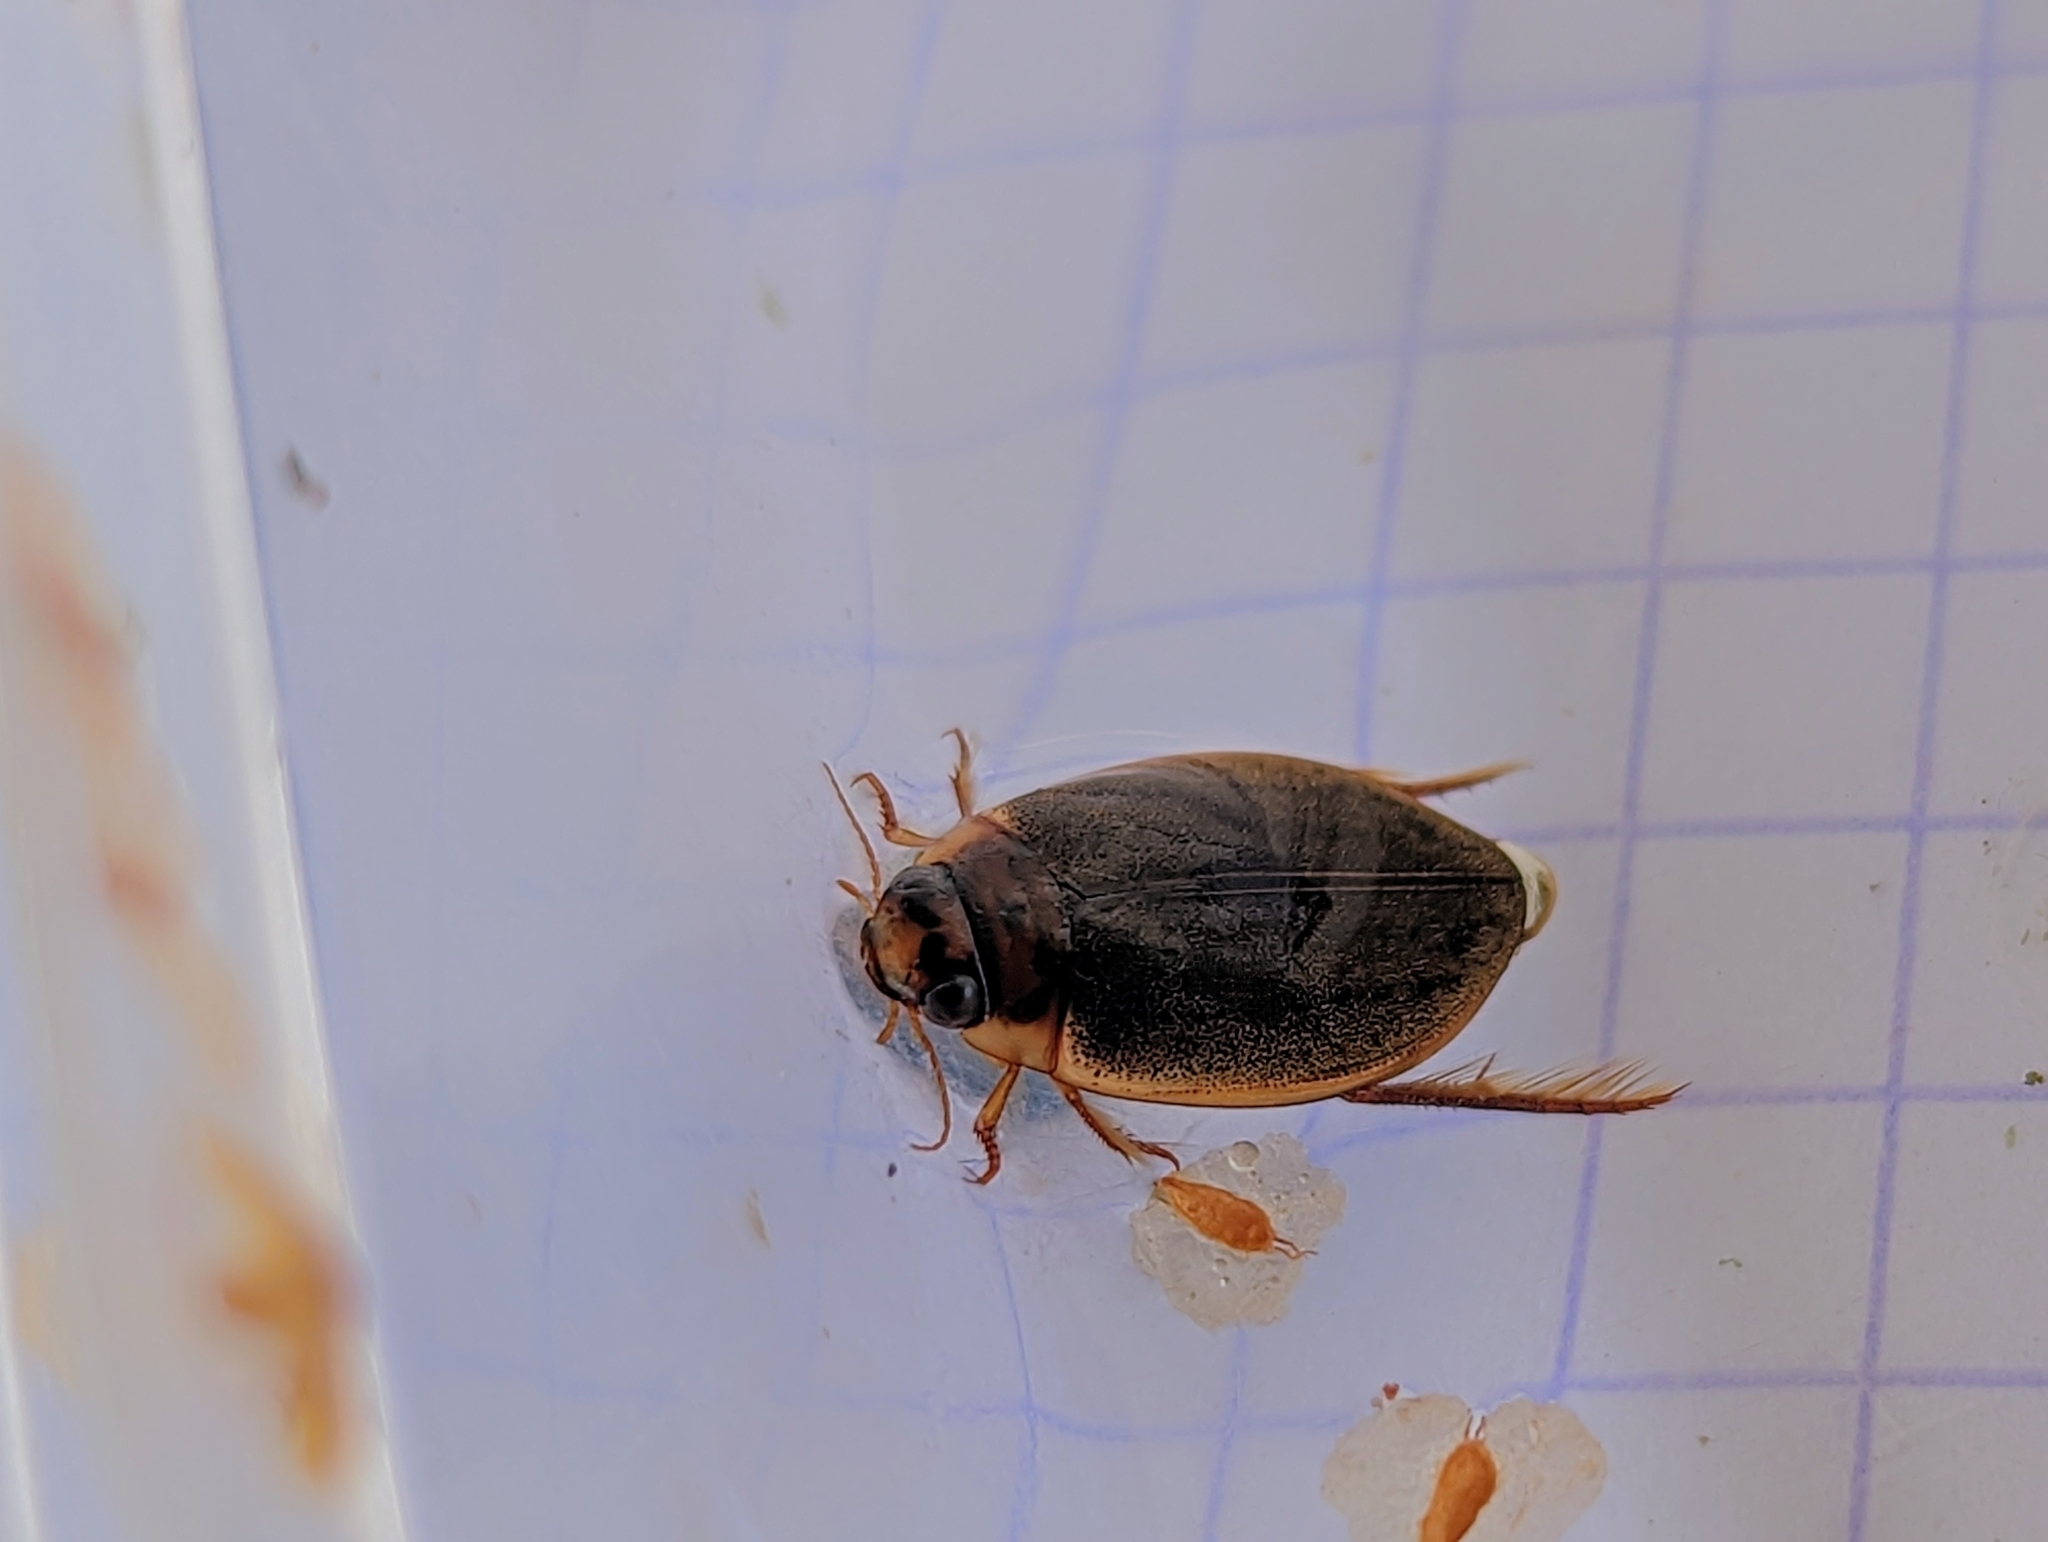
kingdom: Animalia
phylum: Arthropoda
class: Insecta
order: Coleoptera
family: Dytiscidae
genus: Rhantus
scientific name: Rhantus suturalis
